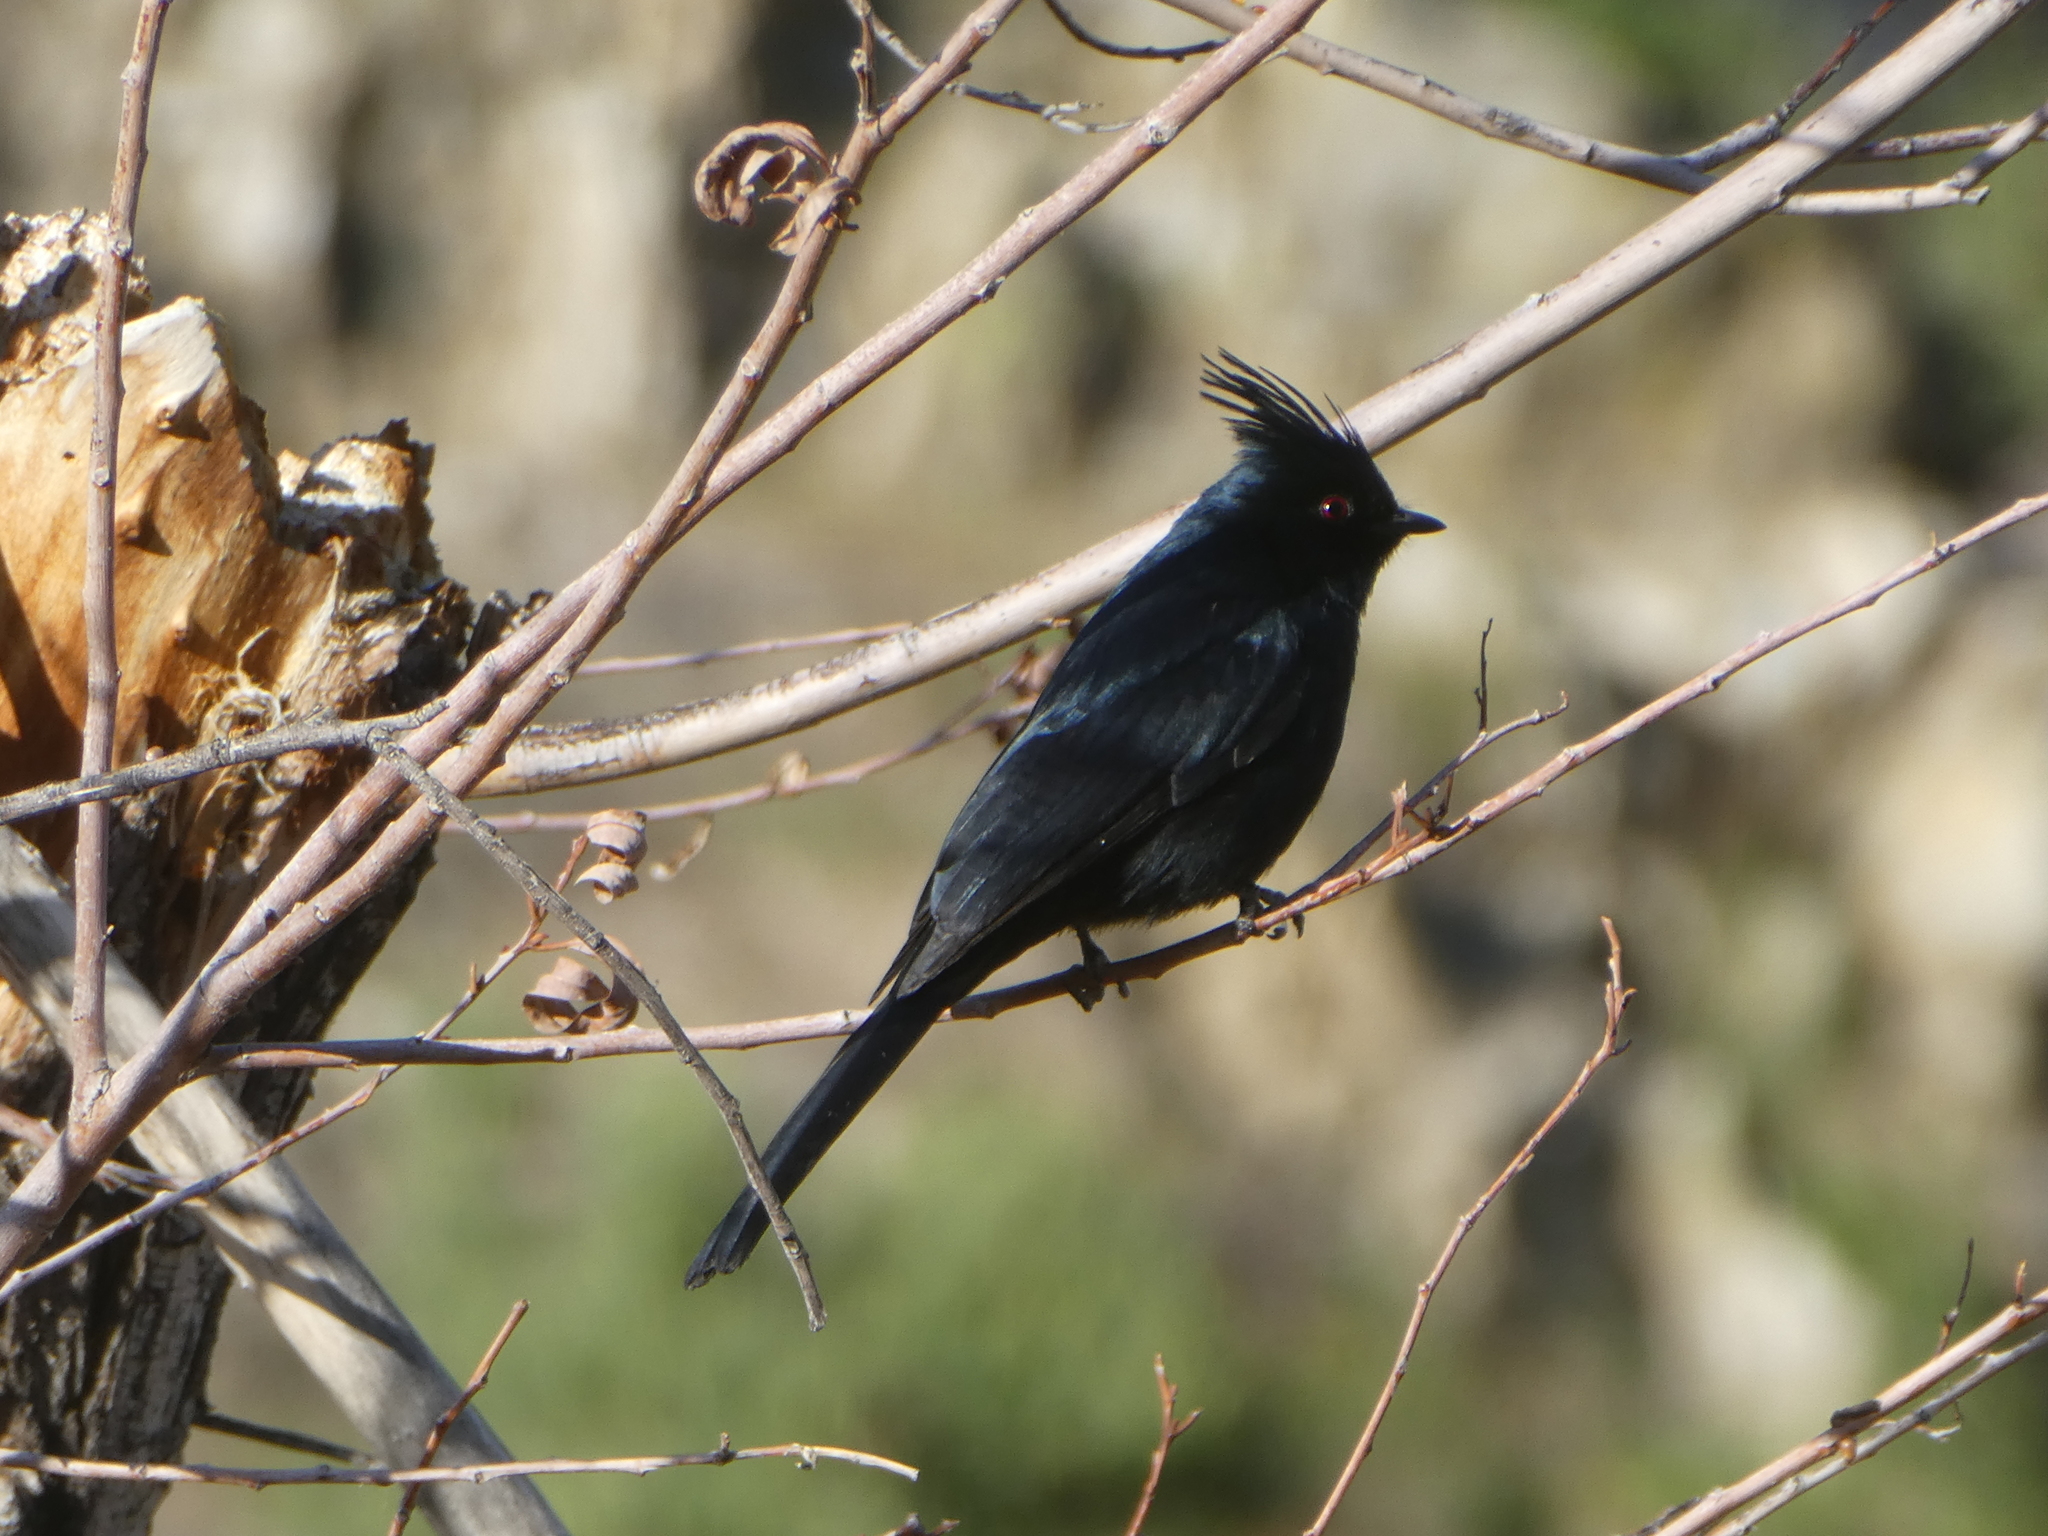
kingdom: Animalia
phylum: Chordata
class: Aves
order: Passeriformes
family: Ptilogonatidae
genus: Phainopepla
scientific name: Phainopepla nitens
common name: Phainopepla
